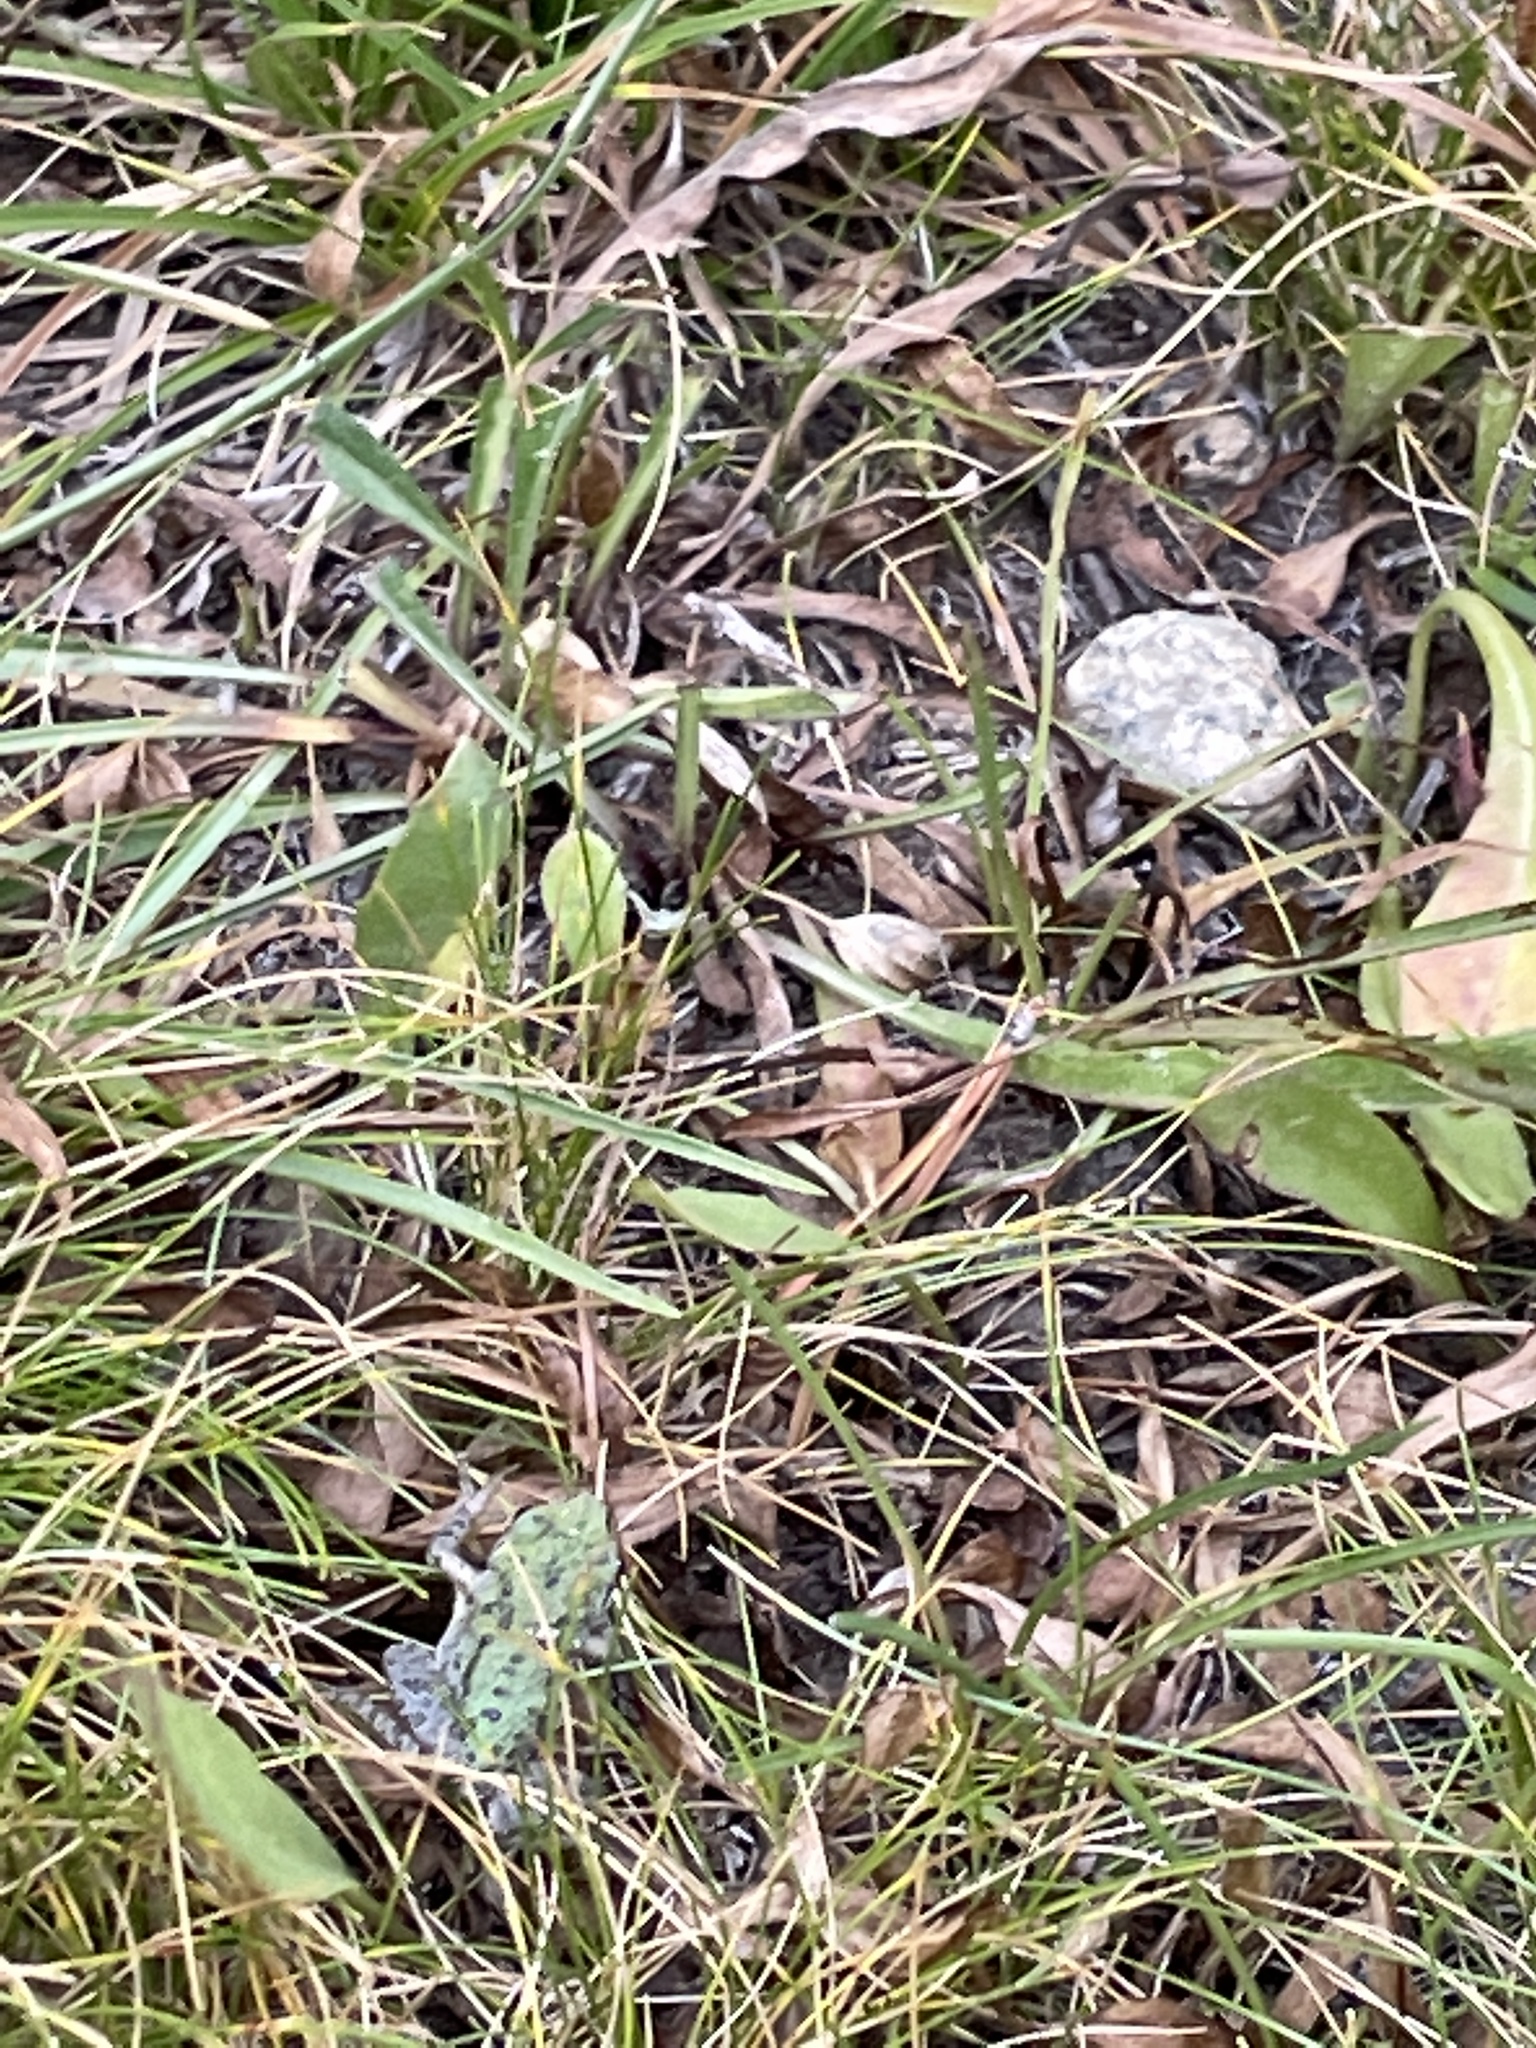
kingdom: Animalia
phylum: Chordata
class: Amphibia
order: Anura
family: Hylidae
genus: Pseudacris
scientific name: Pseudacris regilla
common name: Pacific chorus frog
